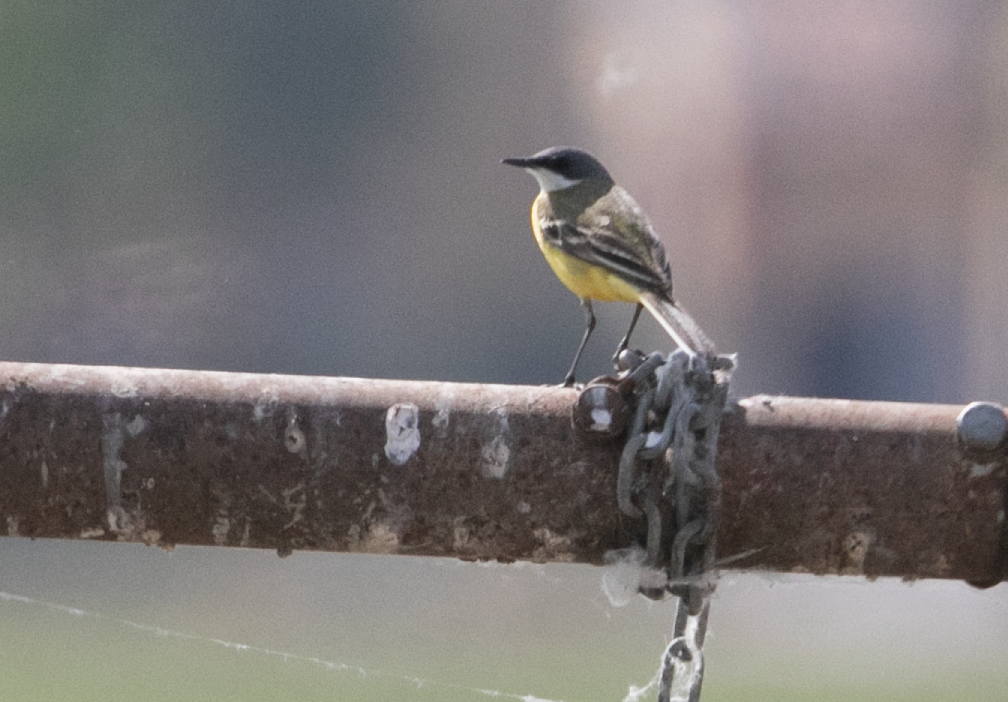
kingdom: Animalia
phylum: Chordata
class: Aves
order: Passeriformes
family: Motacillidae
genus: Motacilla
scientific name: Motacilla flava
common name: Western yellow wagtail
